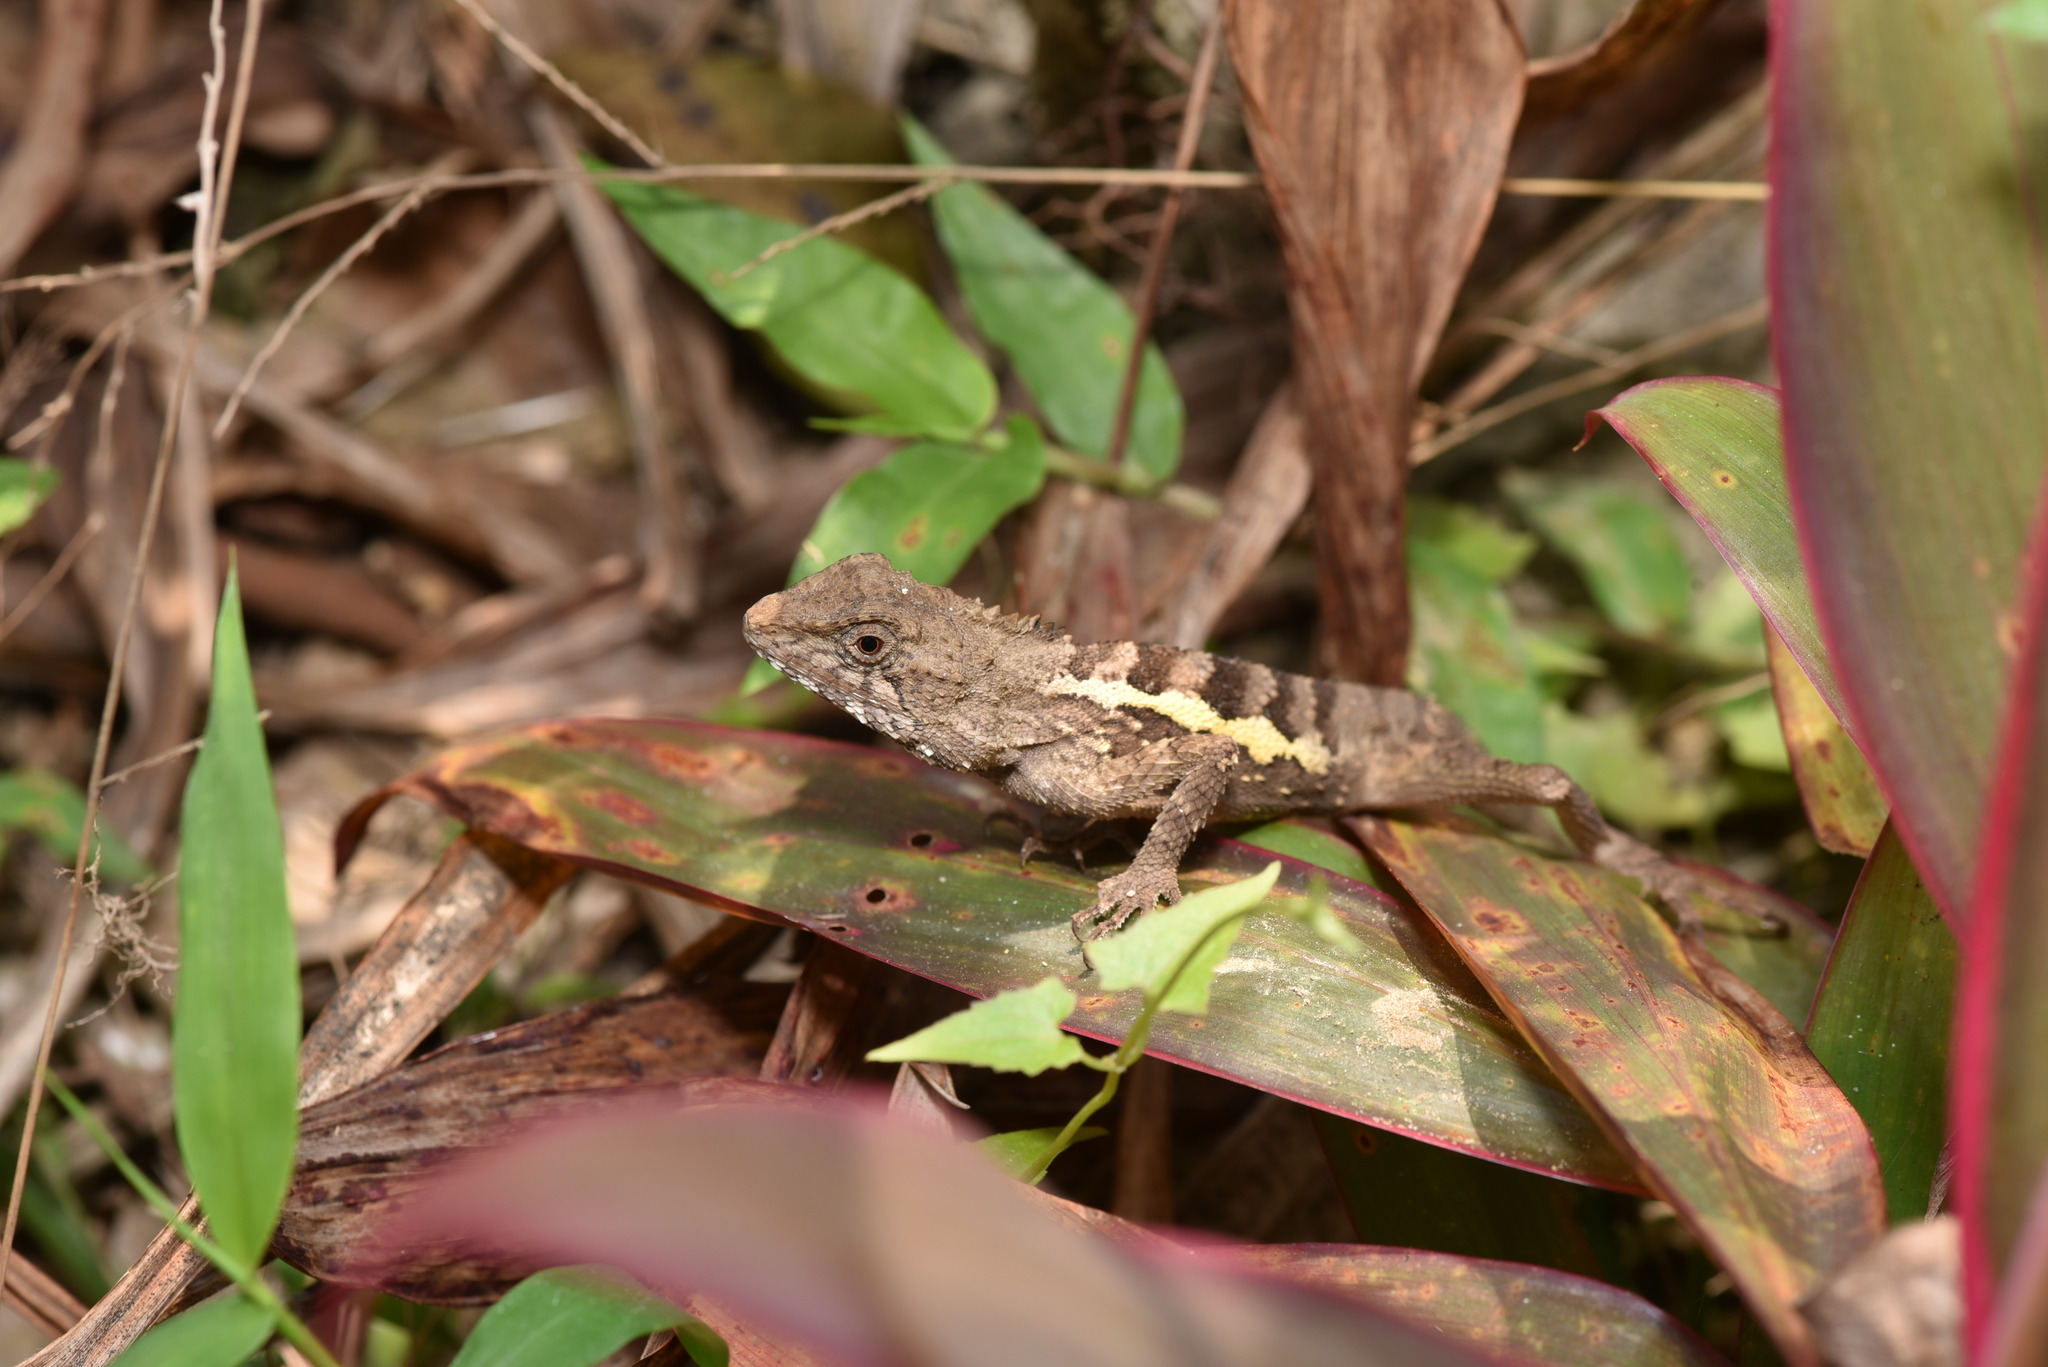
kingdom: Animalia
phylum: Chordata
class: Squamata
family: Agamidae
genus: Diploderma
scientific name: Diploderma swinhonis
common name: Taiwan japalure
